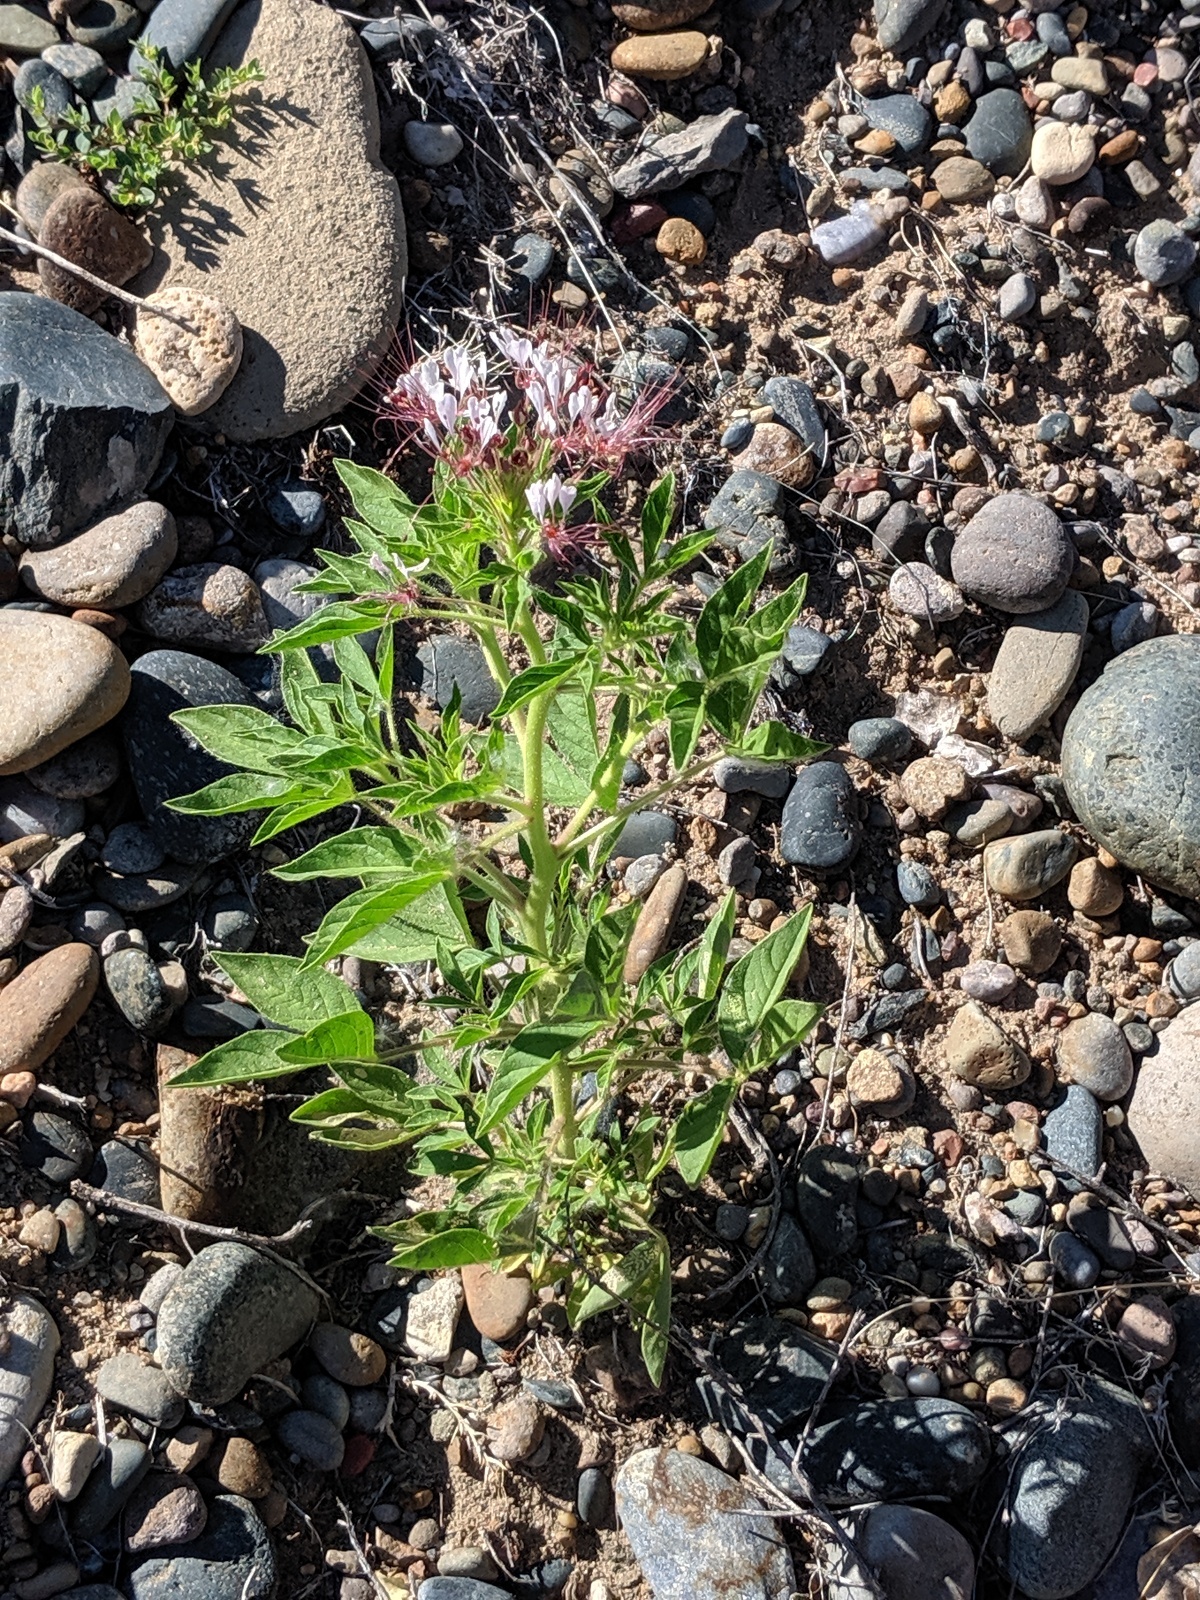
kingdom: Plantae
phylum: Tracheophyta
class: Magnoliopsida
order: Brassicales
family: Cleomaceae
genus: Polanisia
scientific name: Polanisia dodecandra
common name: Clammyweed
